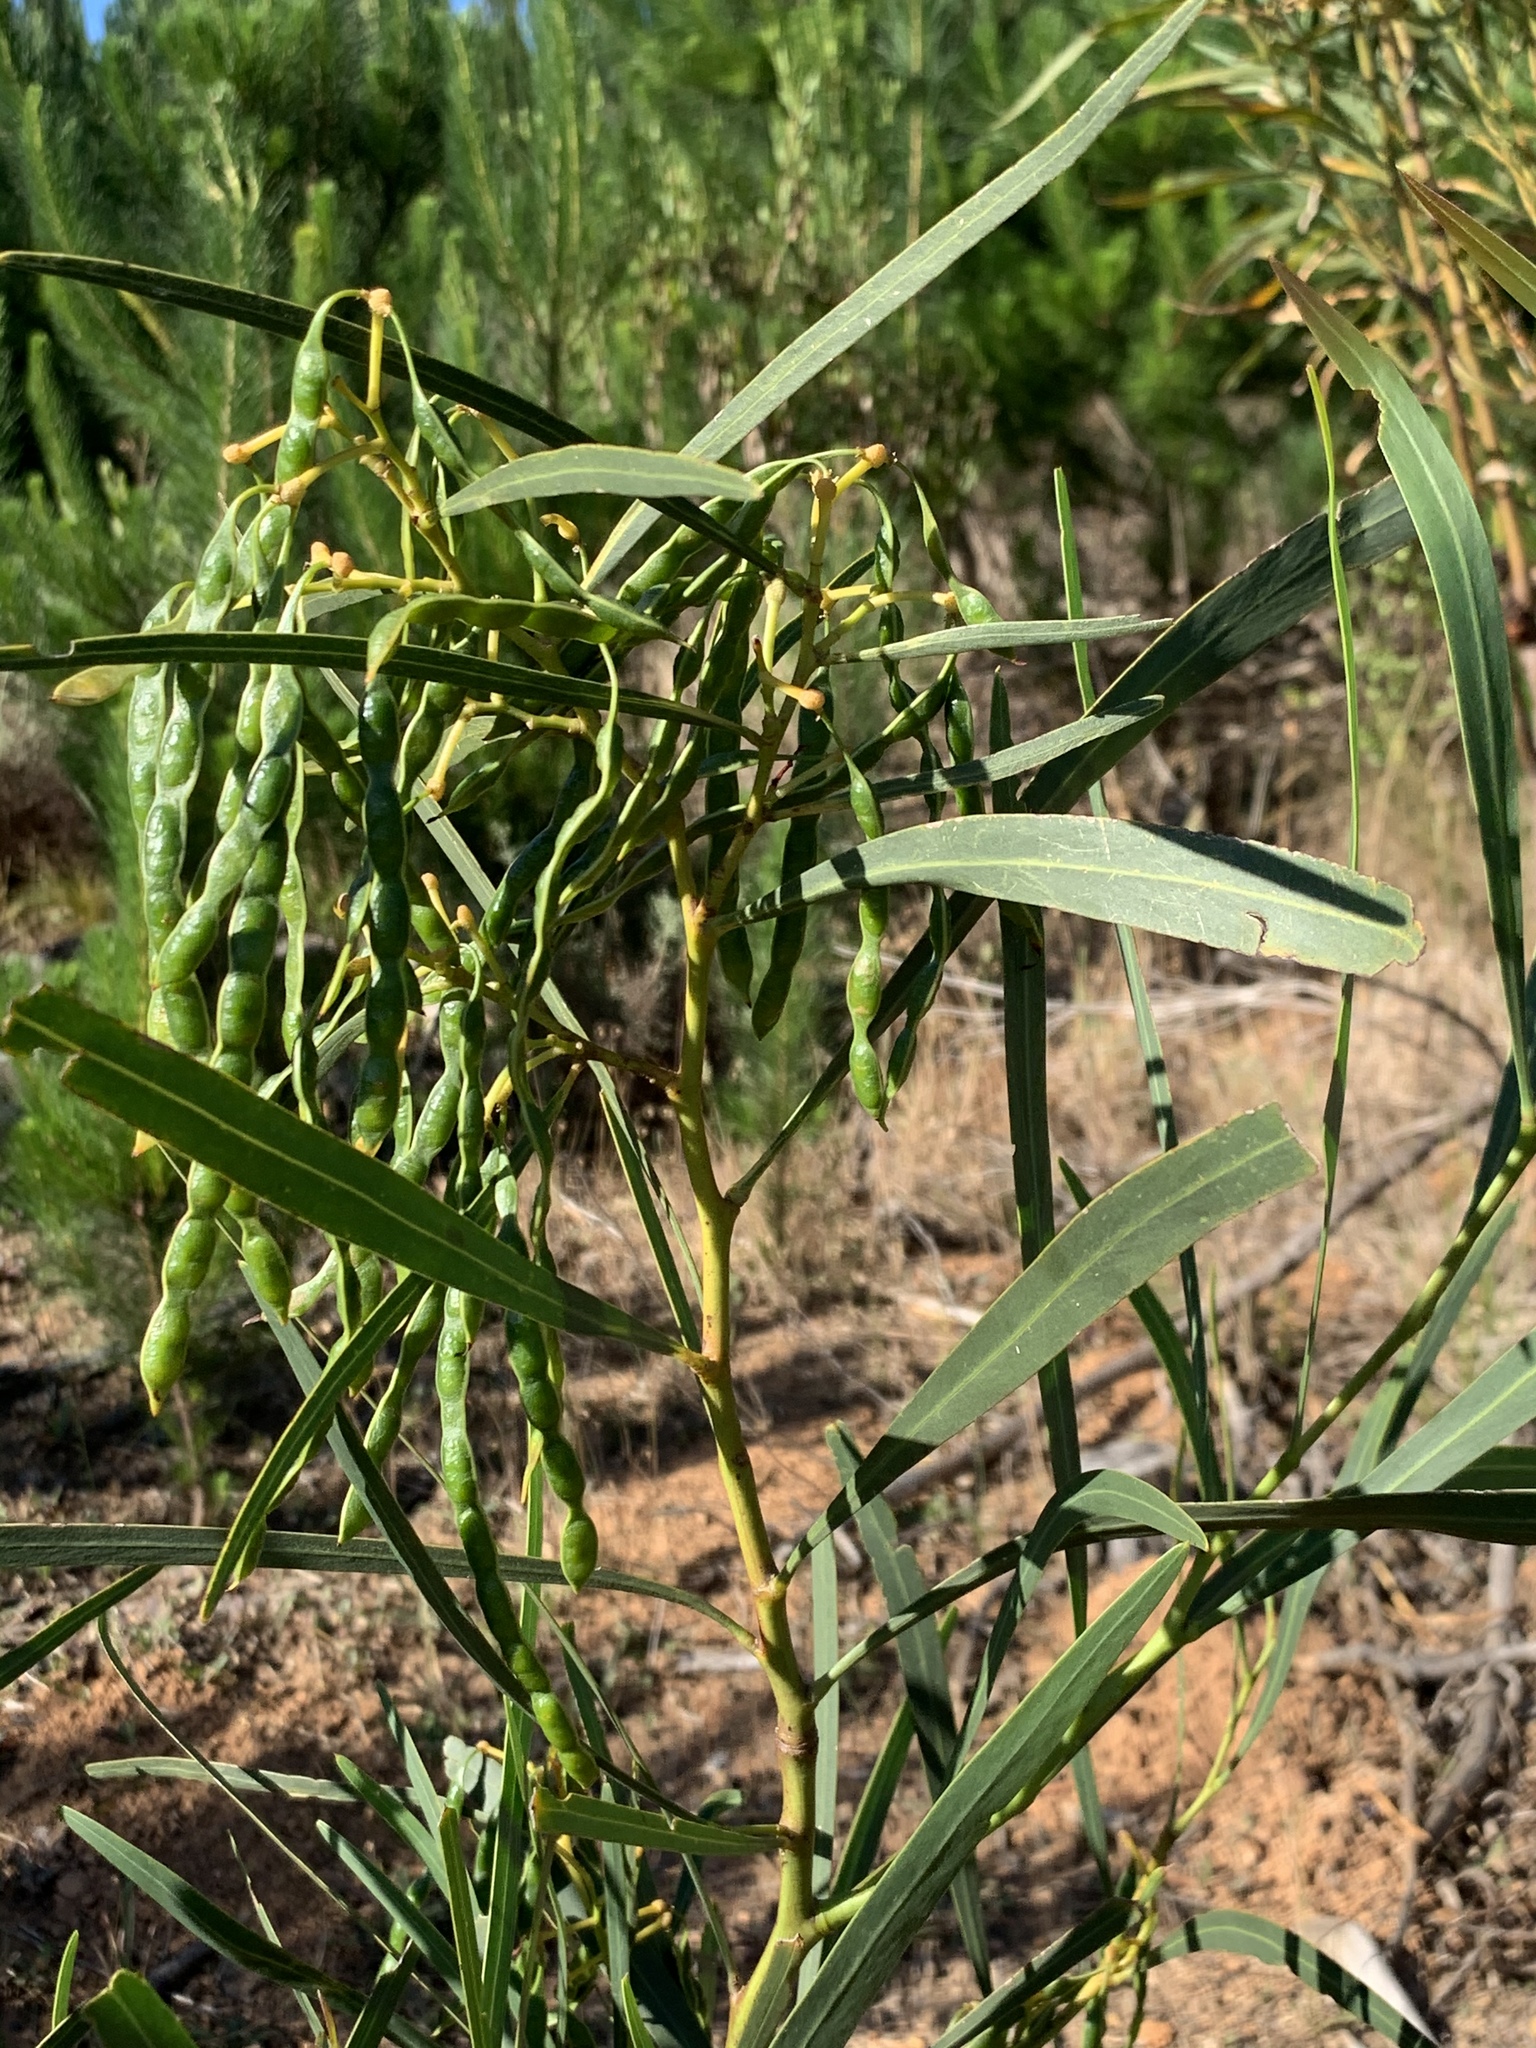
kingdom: Plantae
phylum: Tracheophyta
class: Magnoliopsida
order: Fabales
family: Fabaceae
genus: Acacia
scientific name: Acacia saligna
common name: Orange wattle
